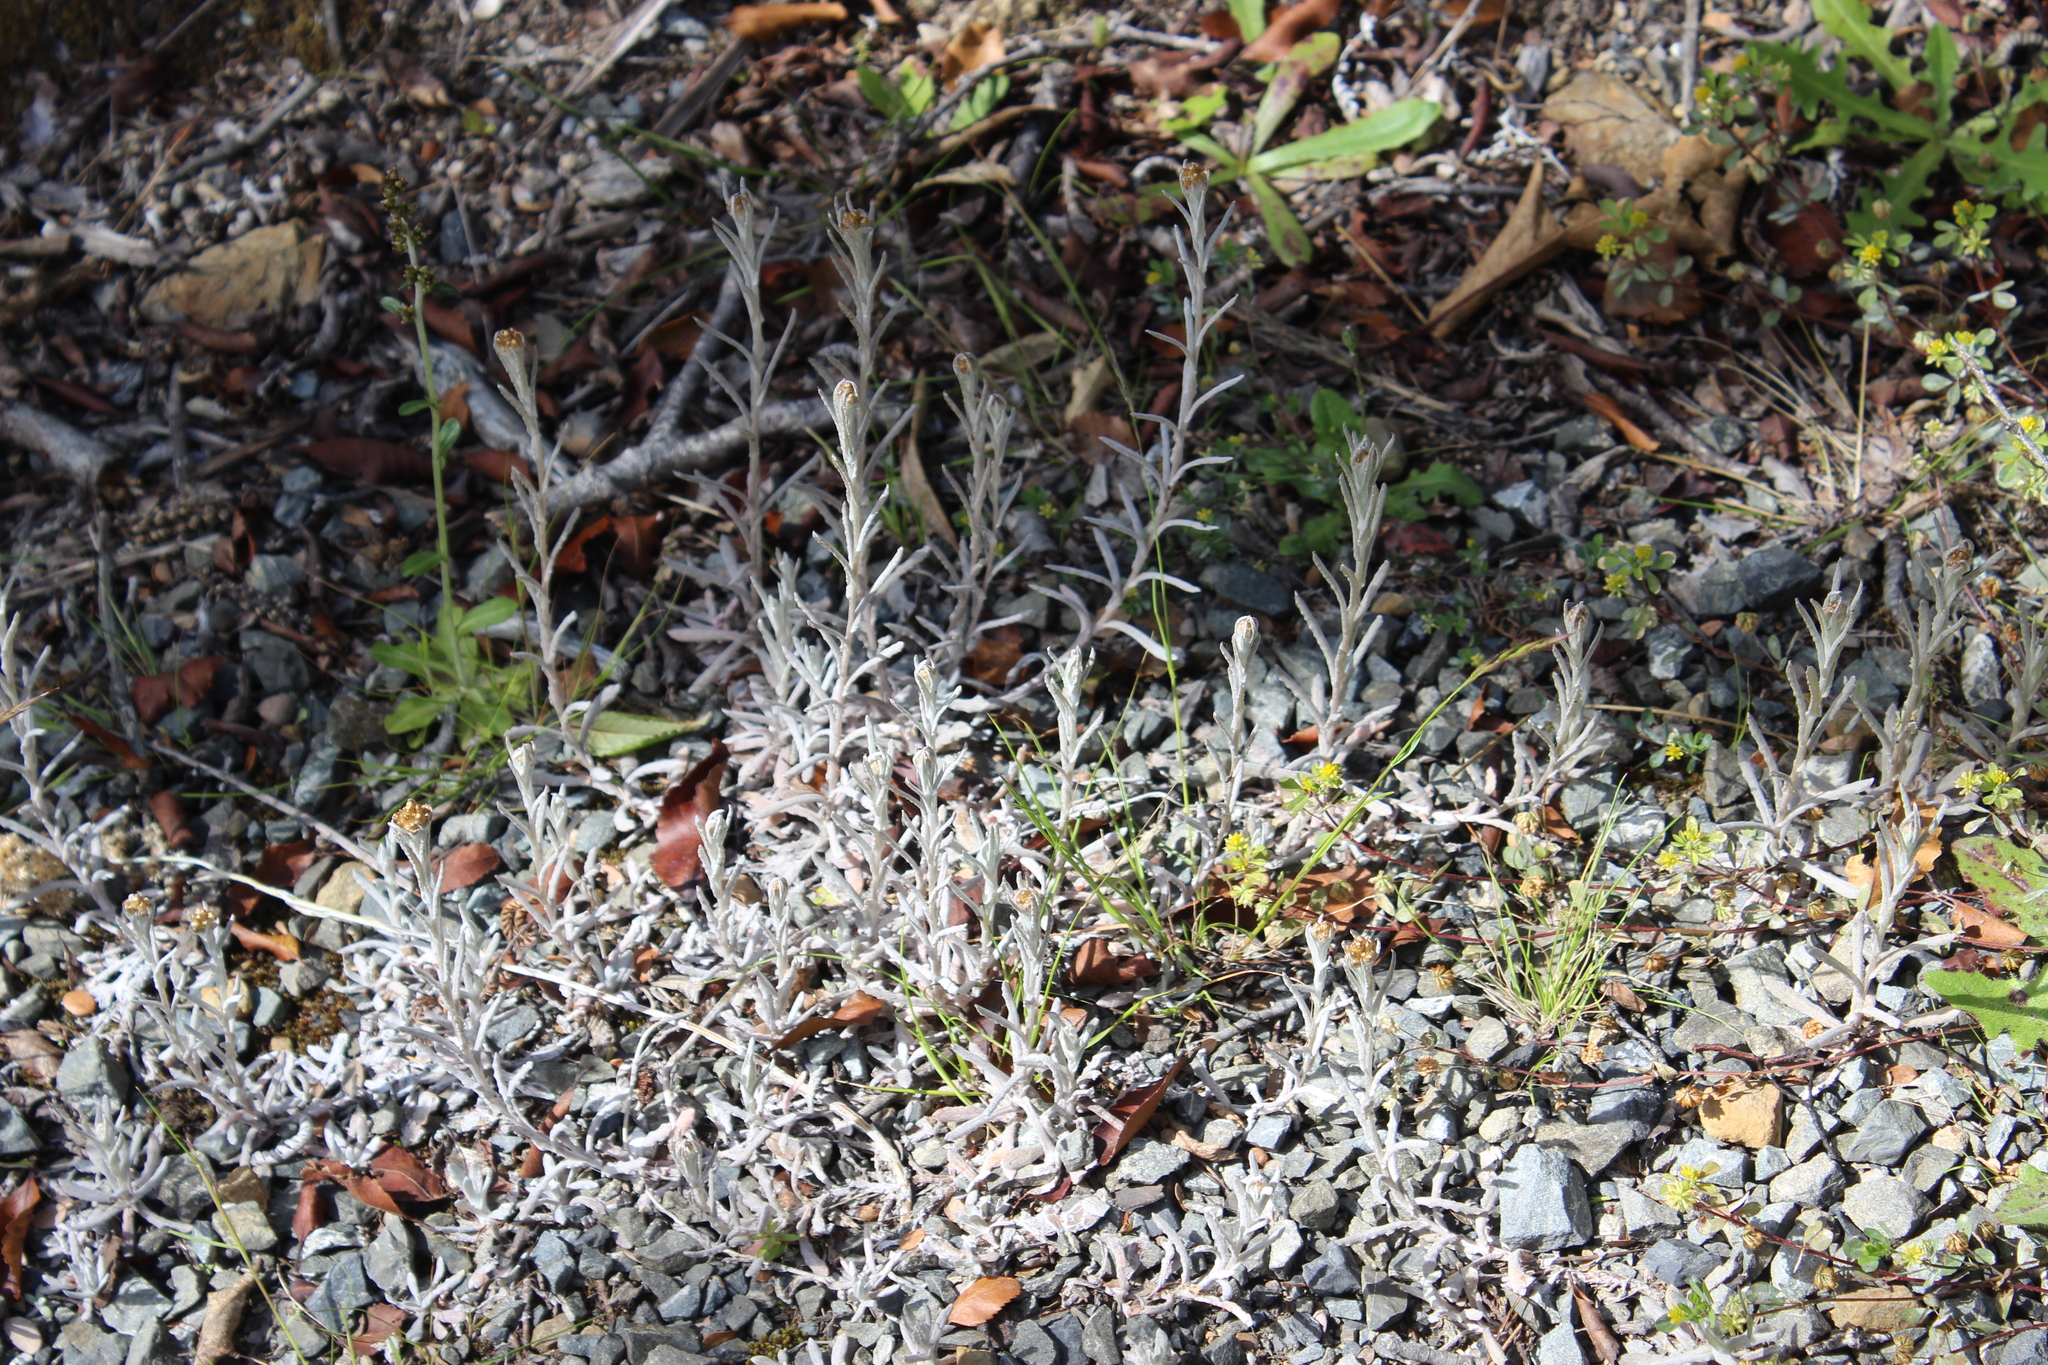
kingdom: Plantae
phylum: Tracheophyta
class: Magnoliopsida
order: Asterales
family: Asteraceae
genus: Helichrysum
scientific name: Helichrysum luteoalbum
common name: Daisy
